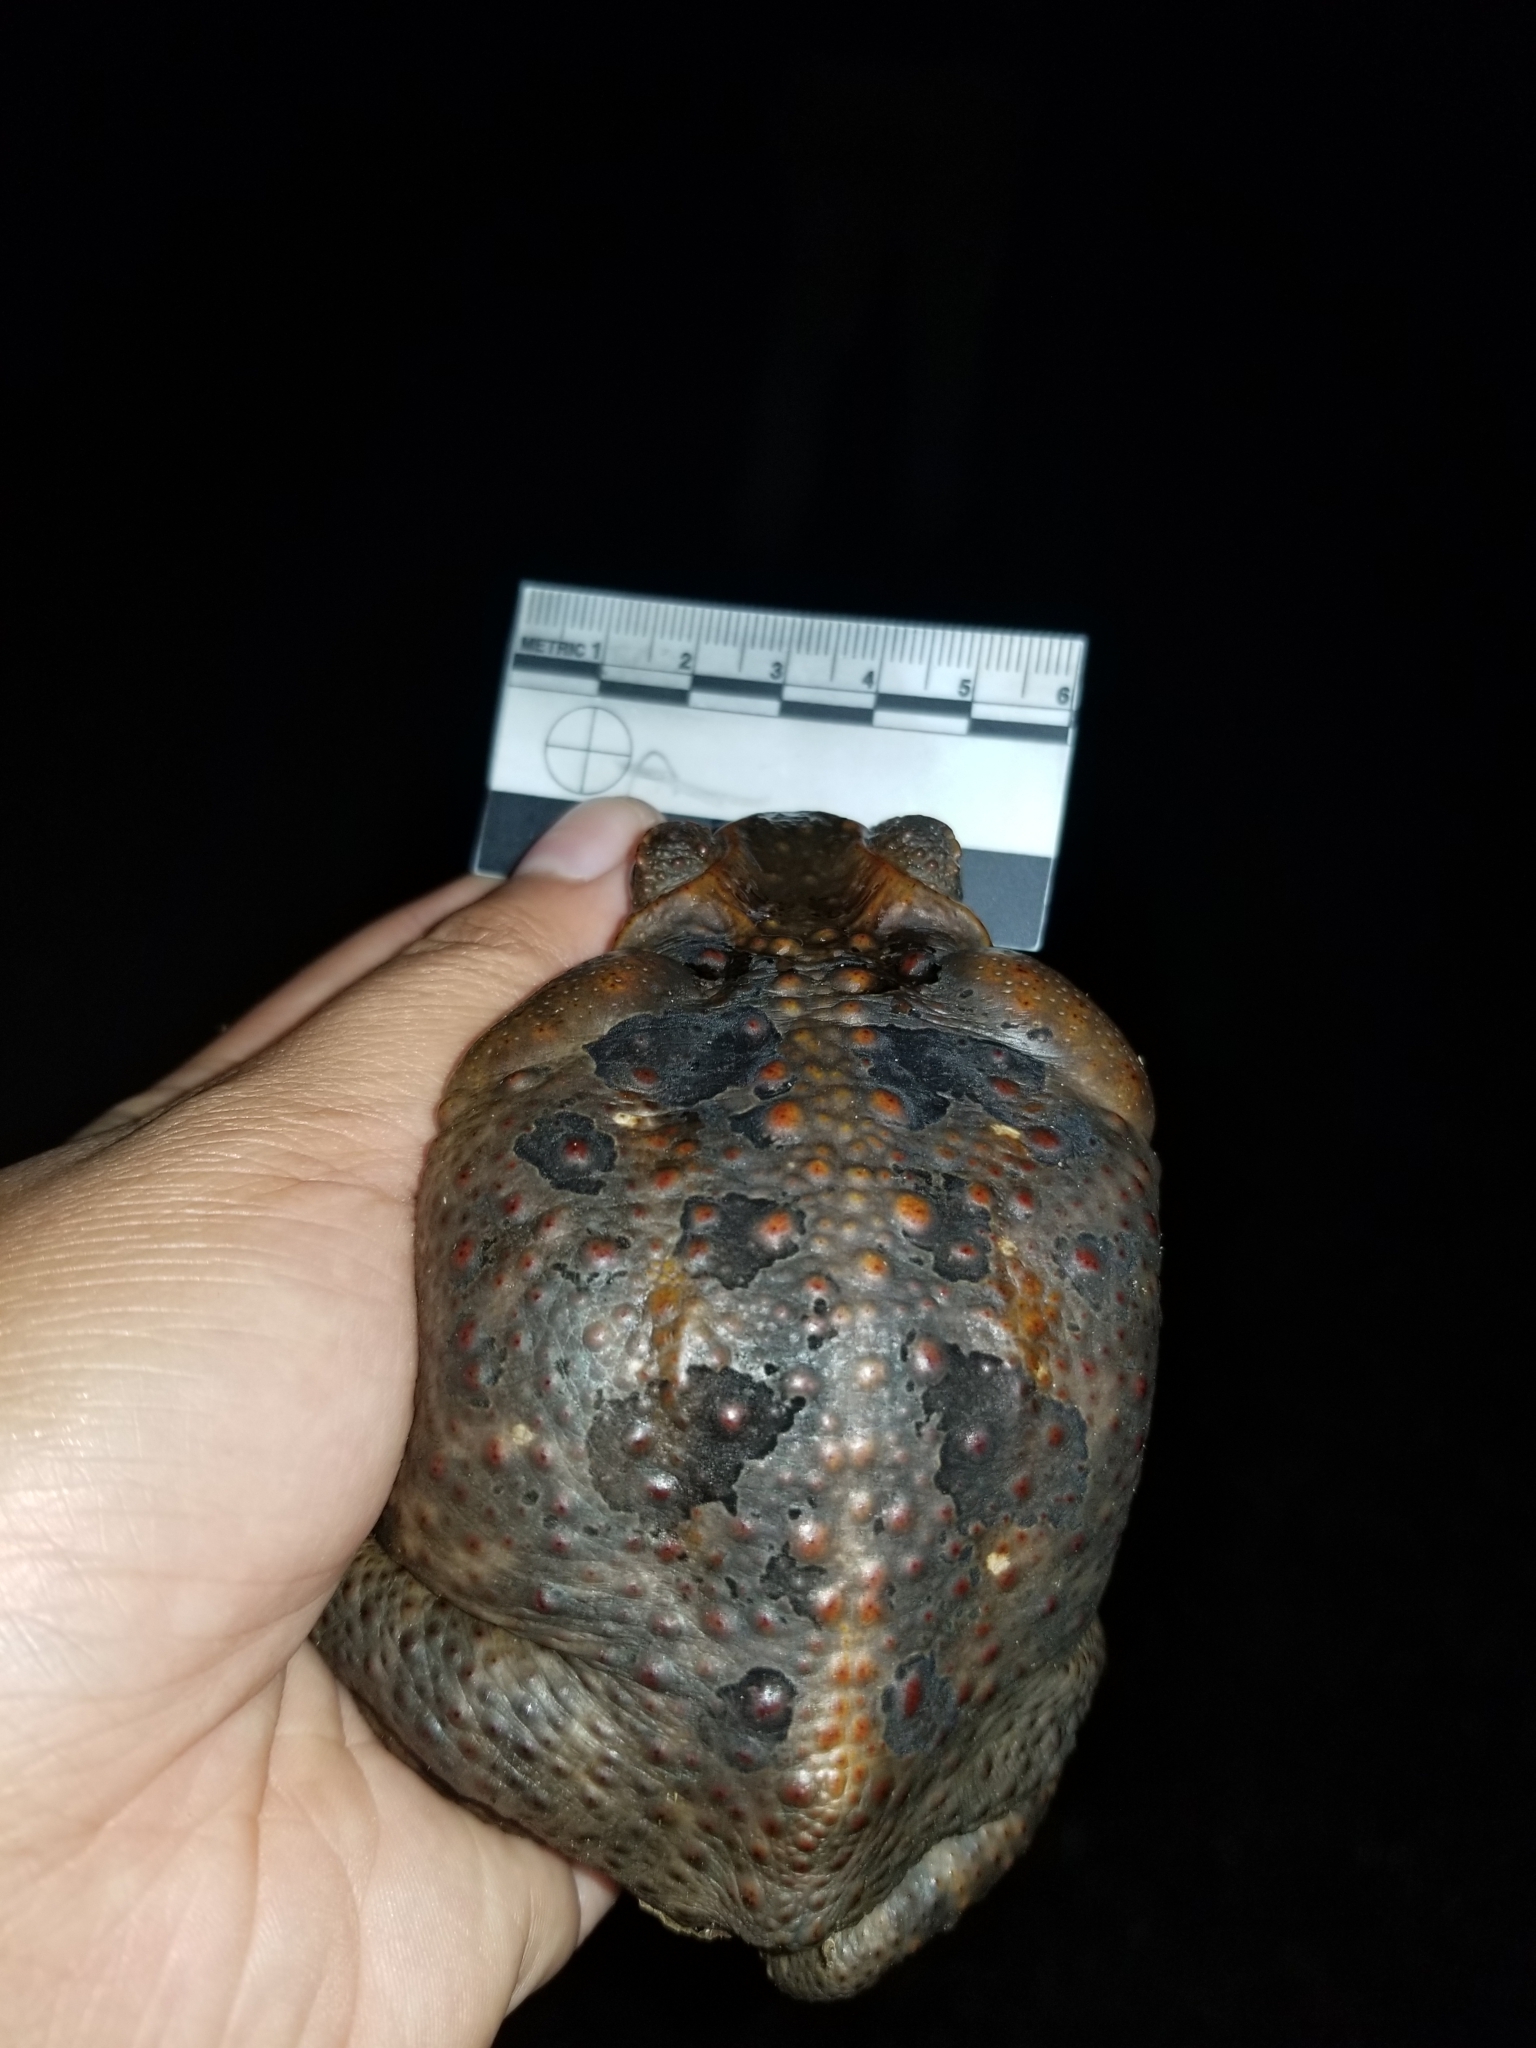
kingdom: Animalia
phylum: Chordata
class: Amphibia
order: Anura
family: Bufonidae
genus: Rhinella
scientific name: Rhinella marina
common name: Cane toad
